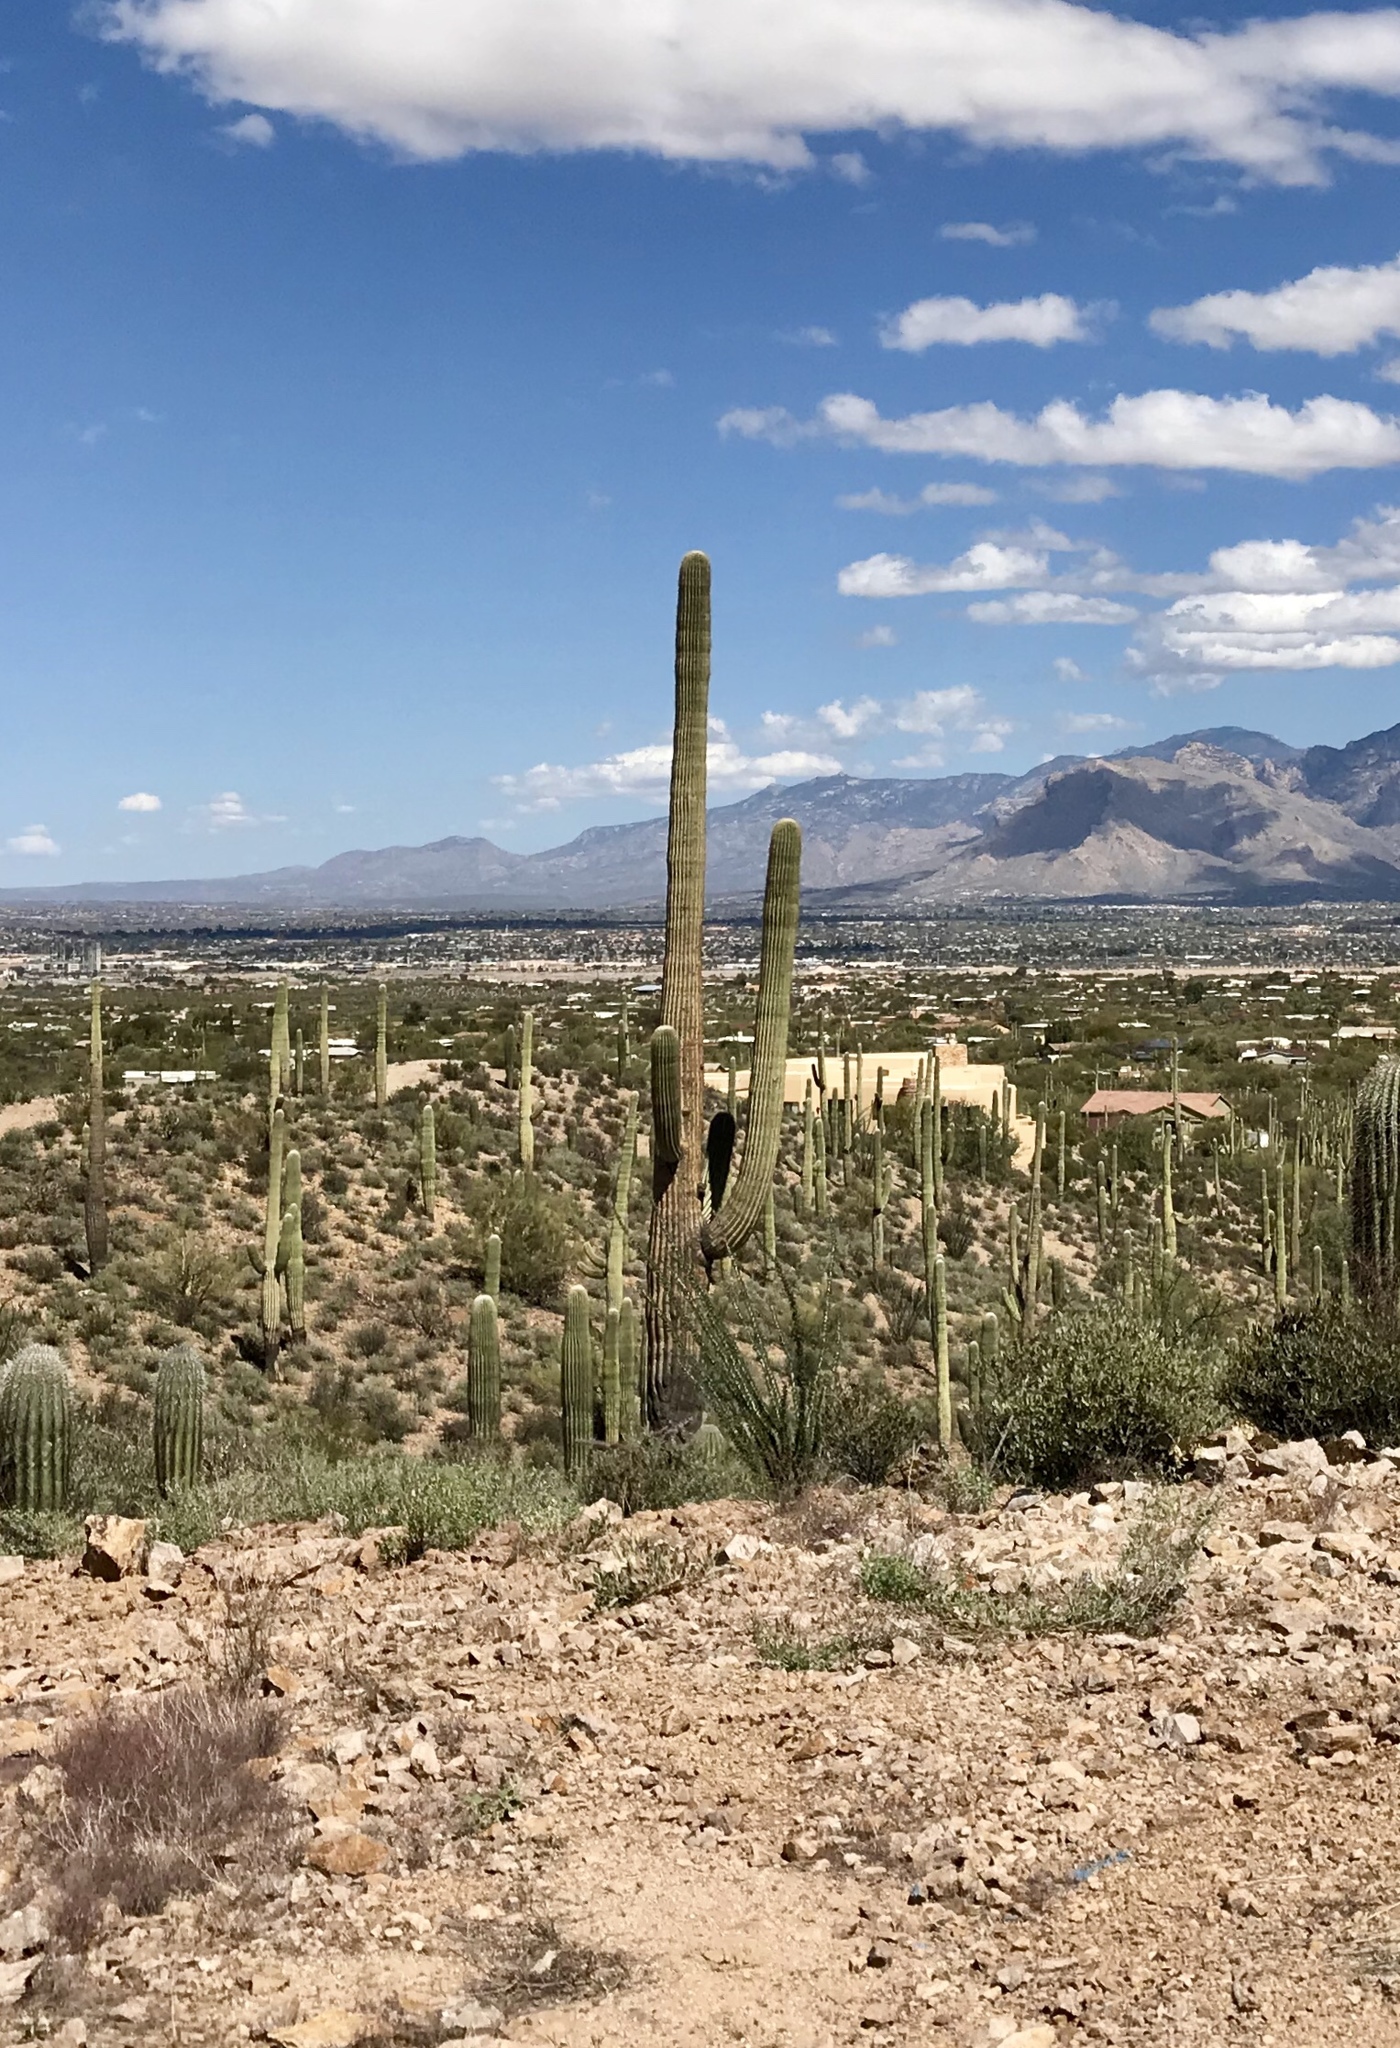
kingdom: Plantae
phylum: Tracheophyta
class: Magnoliopsida
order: Caryophyllales
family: Cactaceae
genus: Carnegiea
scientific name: Carnegiea gigantea
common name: Saguaro
